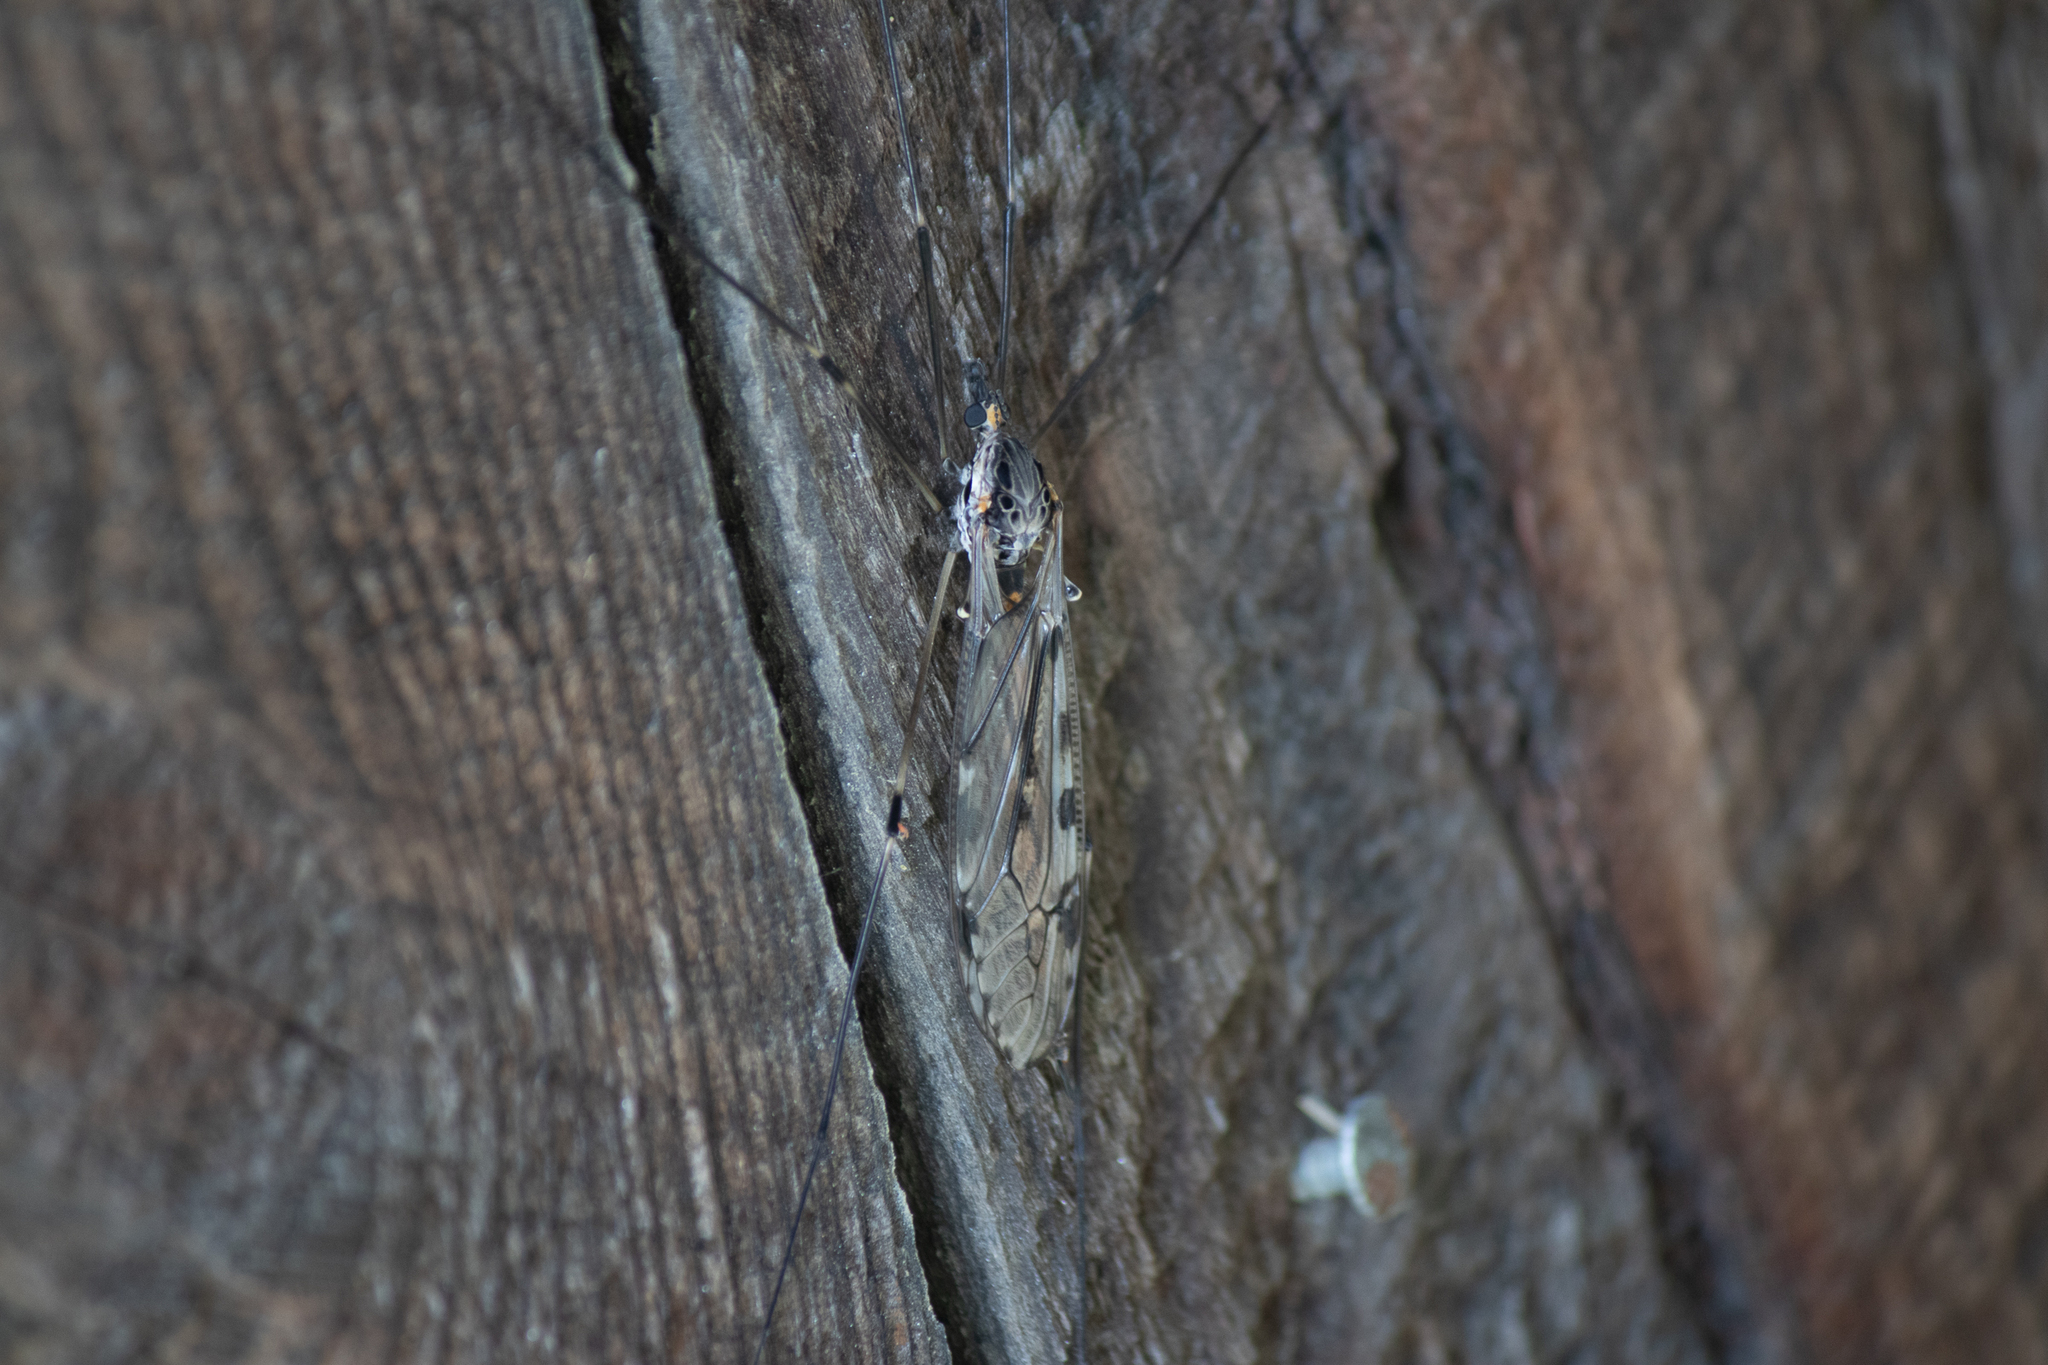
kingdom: Animalia
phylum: Arthropoda
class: Insecta
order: Diptera
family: Tipulidae
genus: Tipula
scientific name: Tipula abdominalis
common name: Giant crane fly
